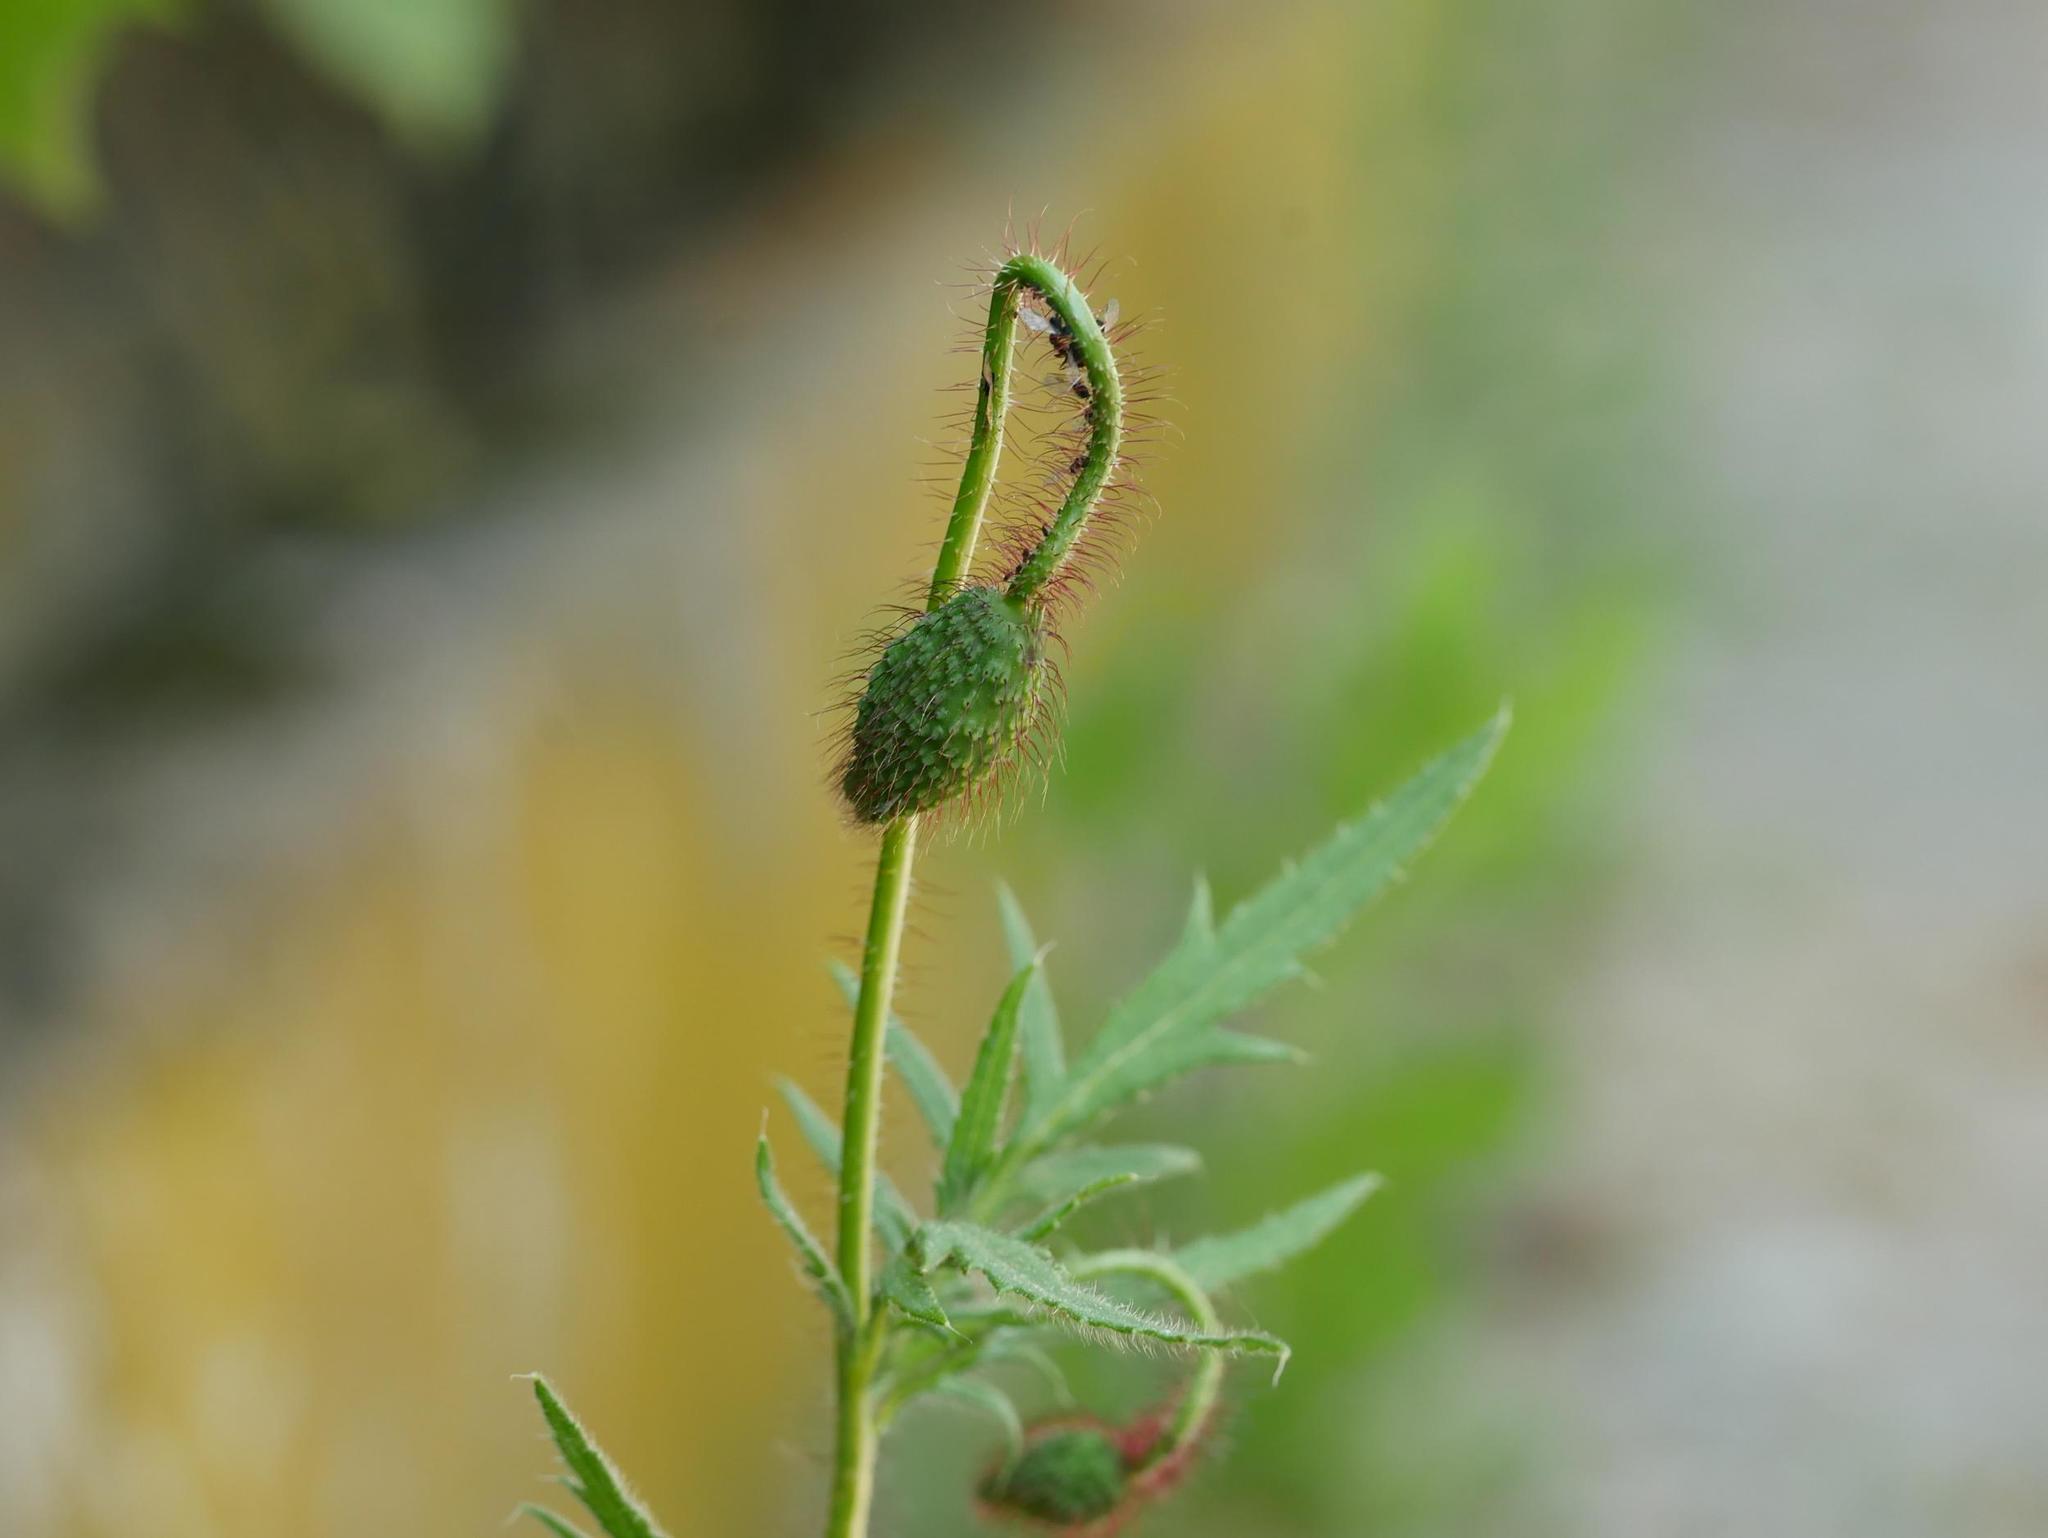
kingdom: Plantae
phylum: Tracheophyta
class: Magnoliopsida
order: Ranunculales
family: Papaveraceae
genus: Papaver
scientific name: Papaver rhoeas
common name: Corn poppy
